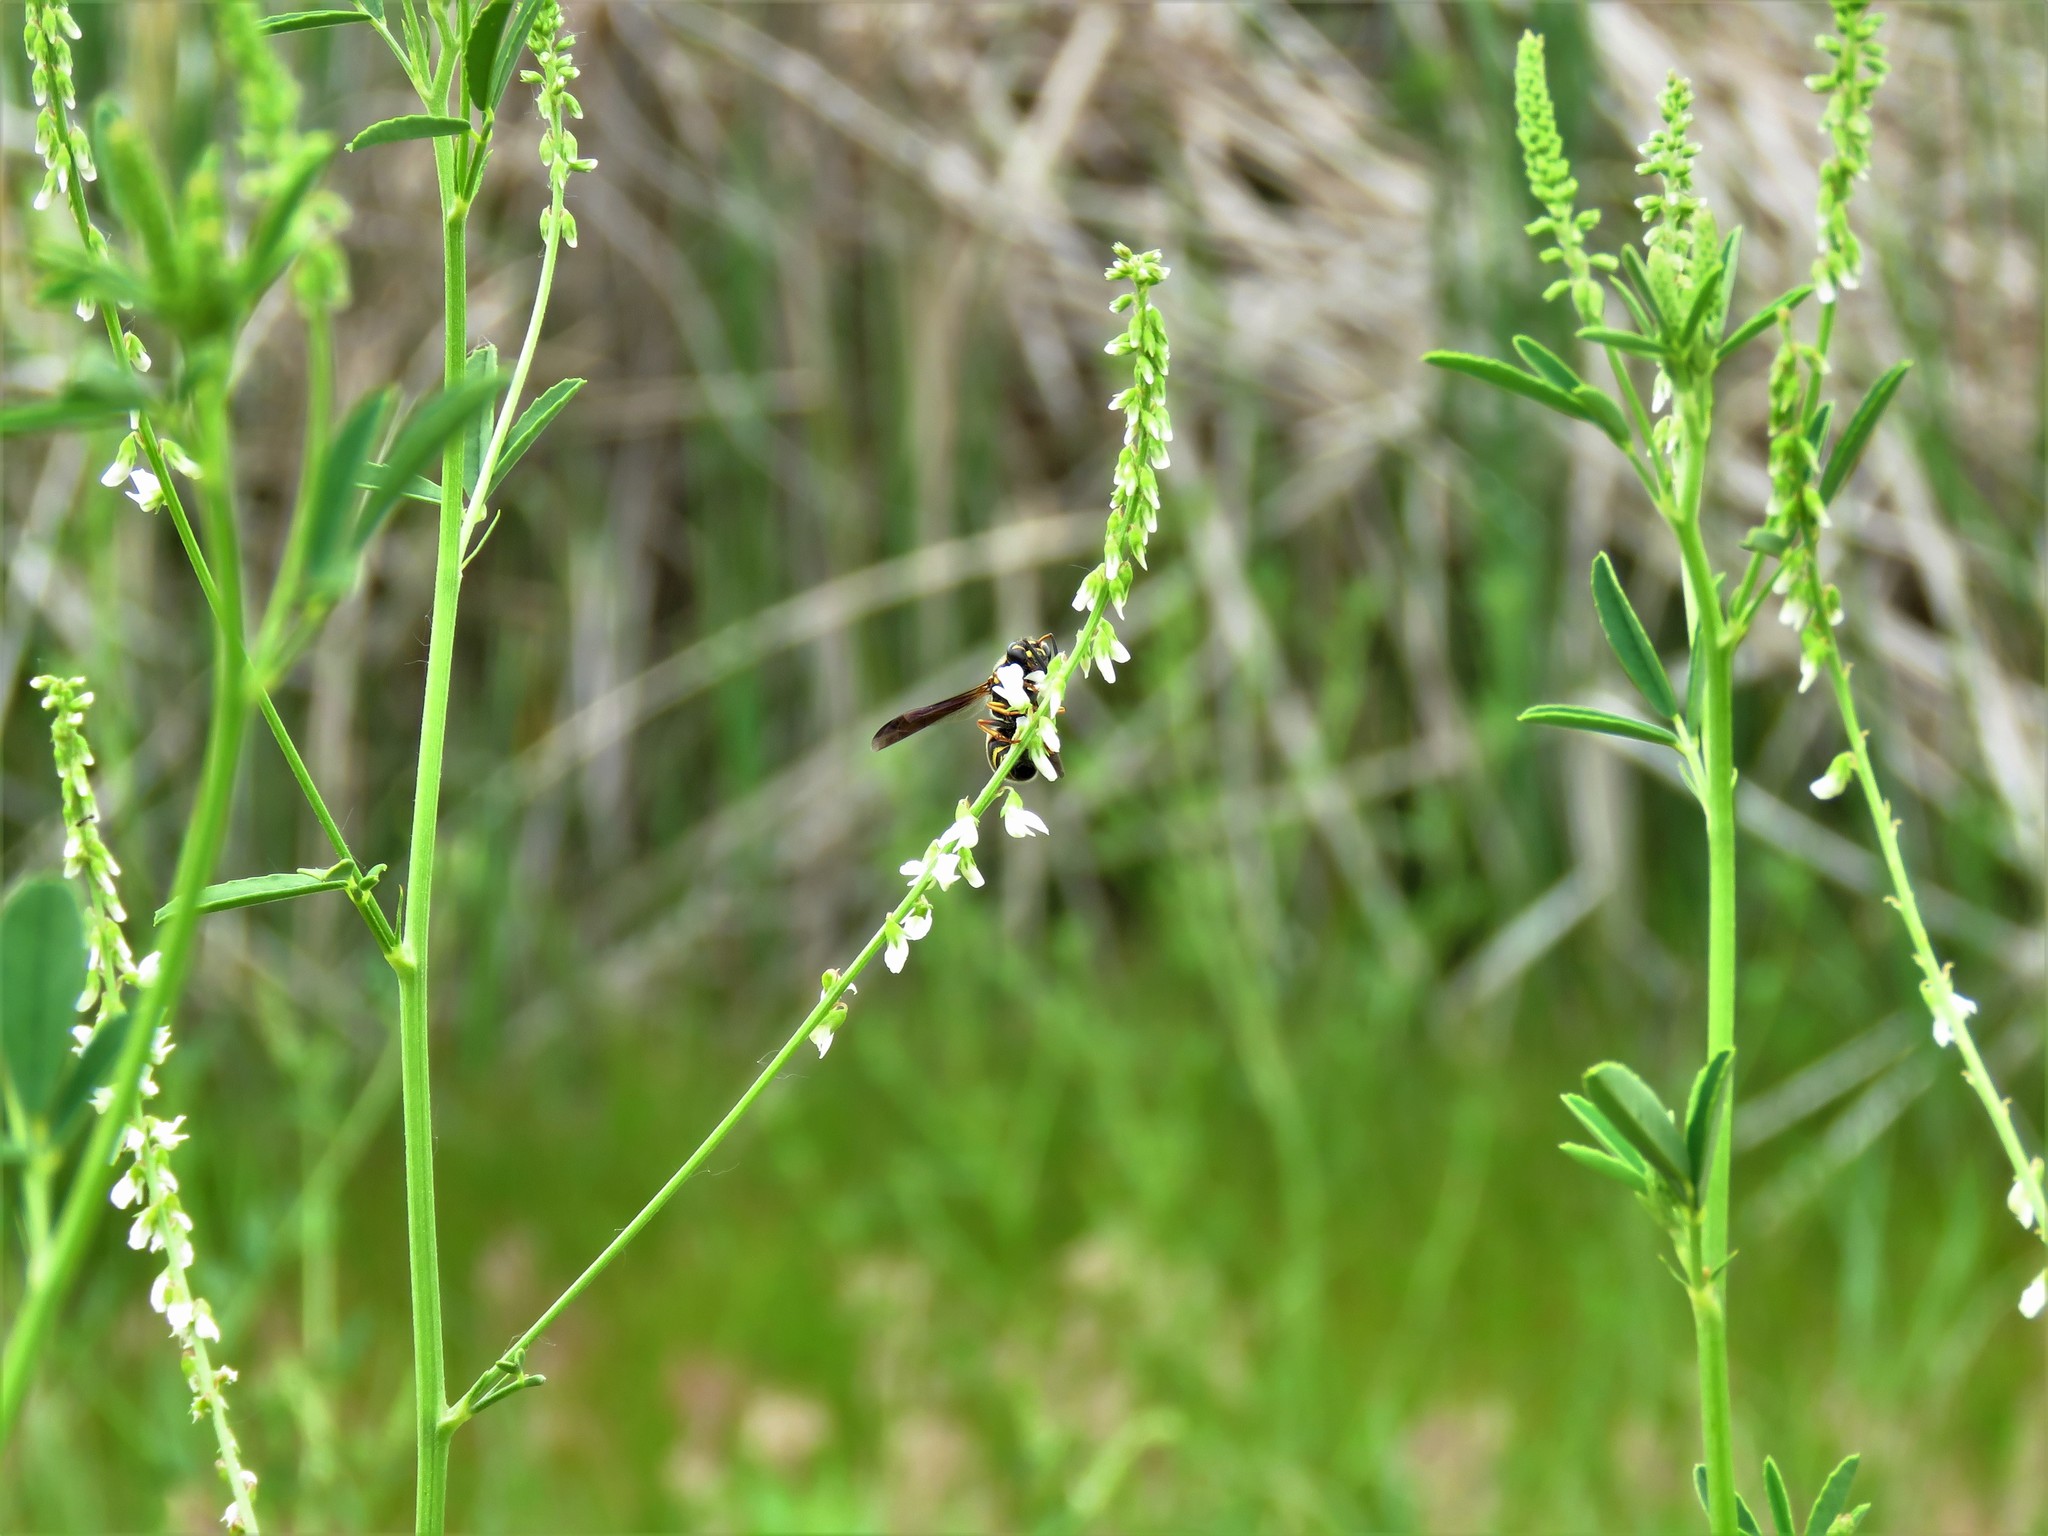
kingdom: Plantae
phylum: Tracheophyta
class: Magnoliopsida
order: Fabales
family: Fabaceae
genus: Melilotus
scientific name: Melilotus albus
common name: White melilot
